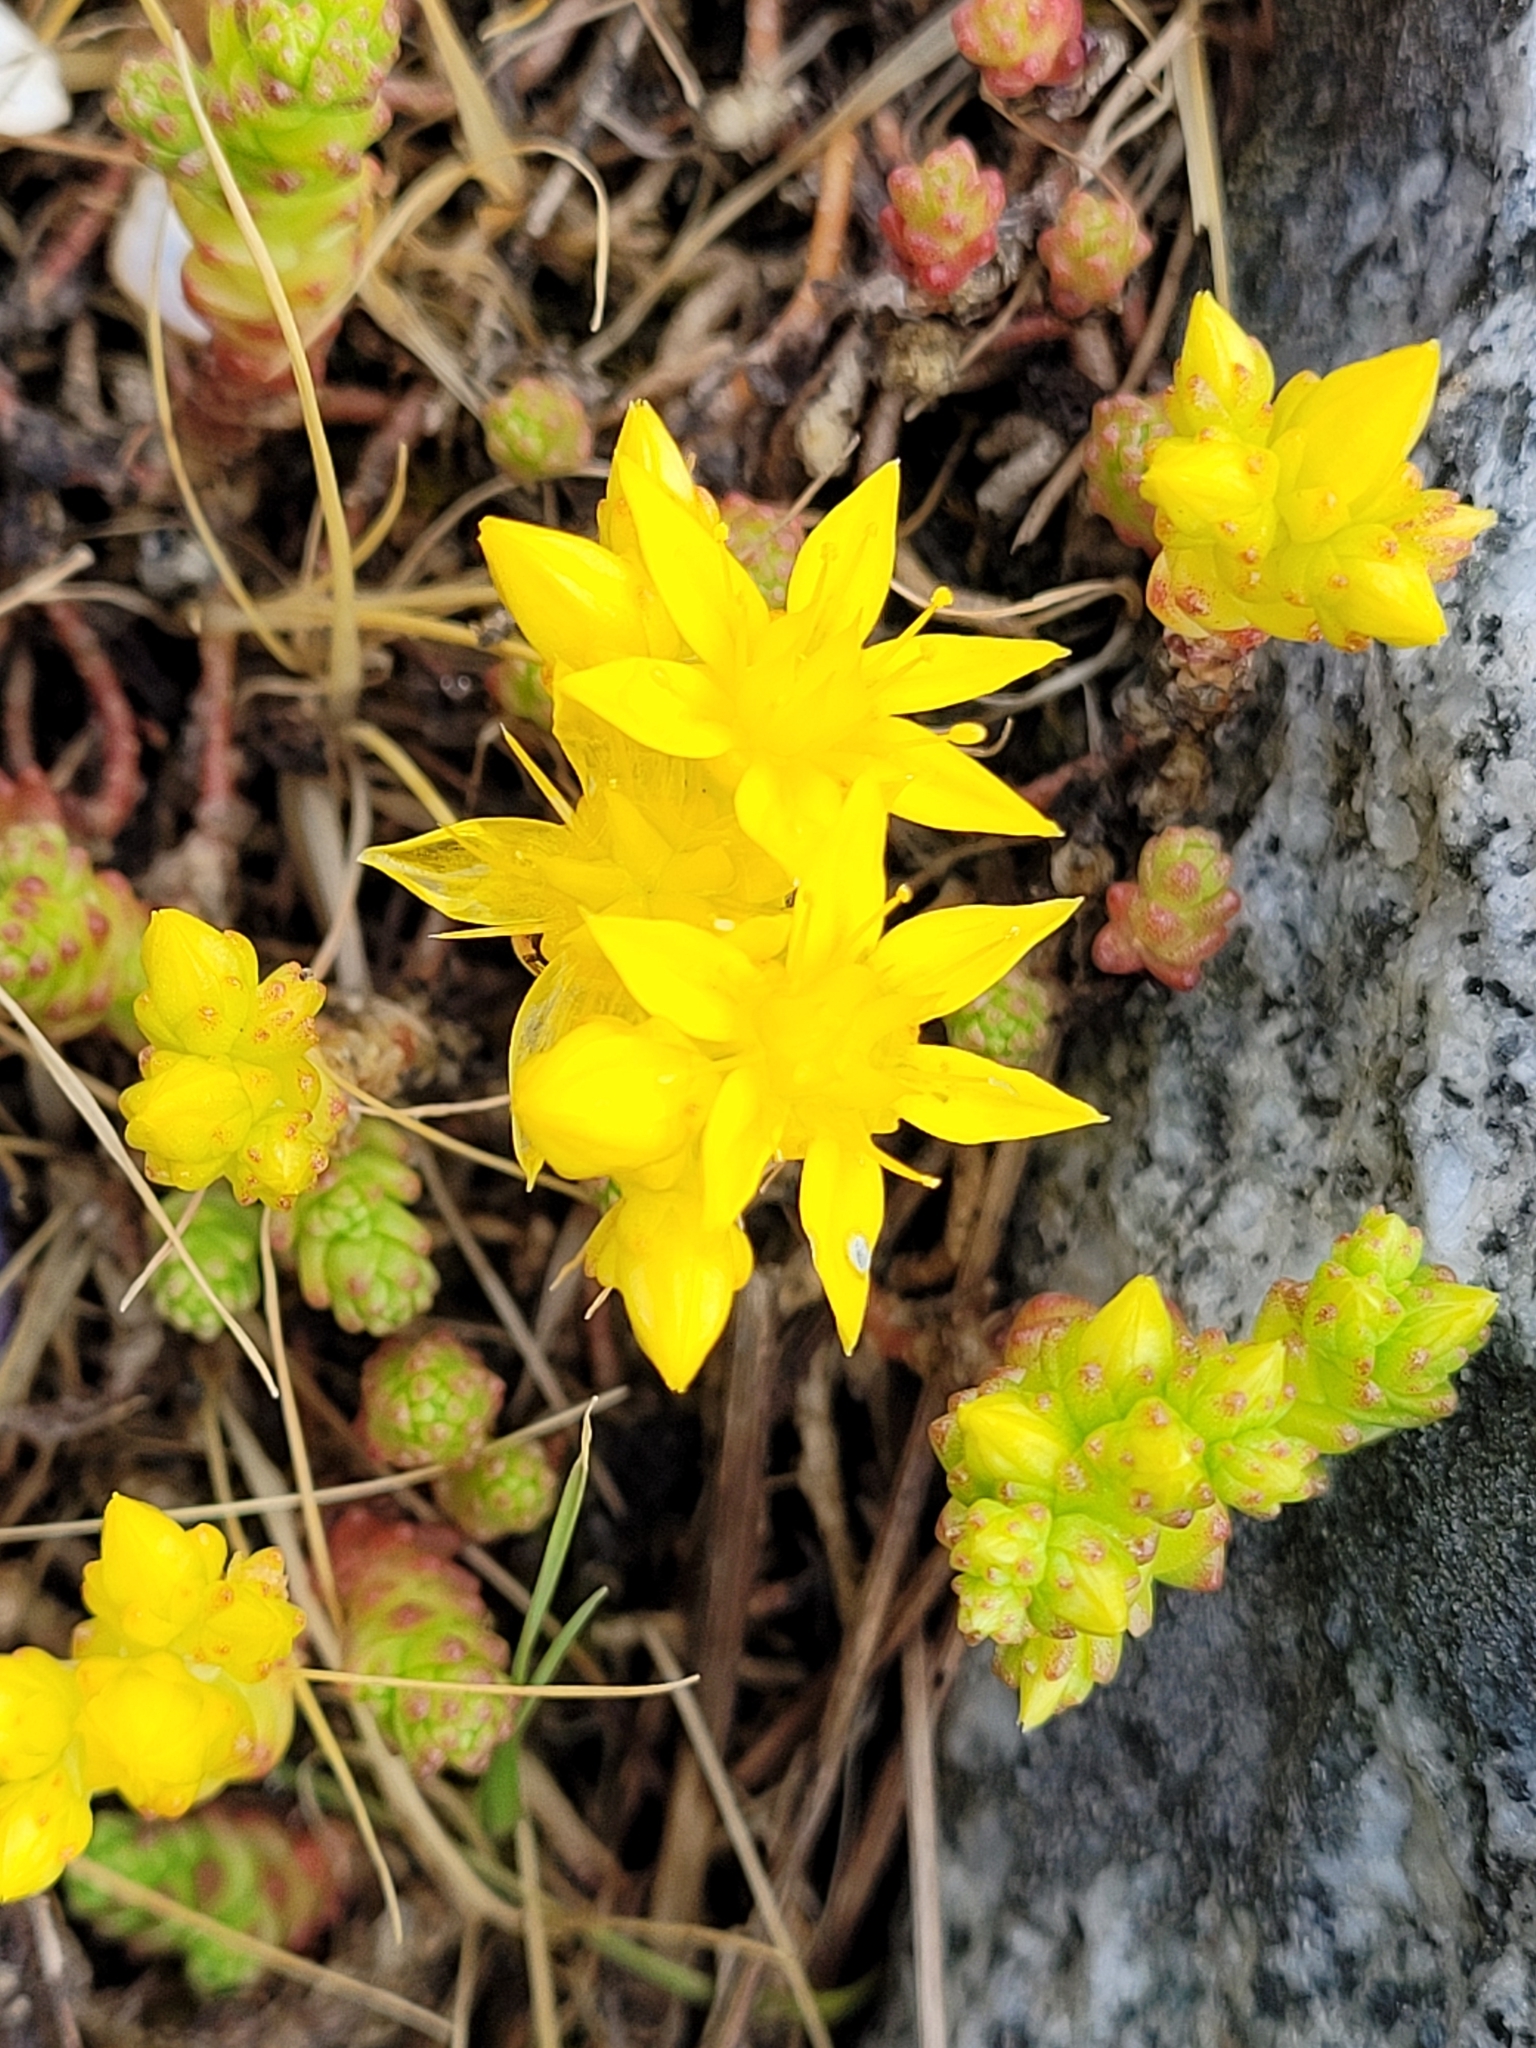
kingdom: Plantae
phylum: Tracheophyta
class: Magnoliopsida
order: Saxifragales
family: Crassulaceae
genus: Sedum
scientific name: Sedum acre
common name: Biting stonecrop
